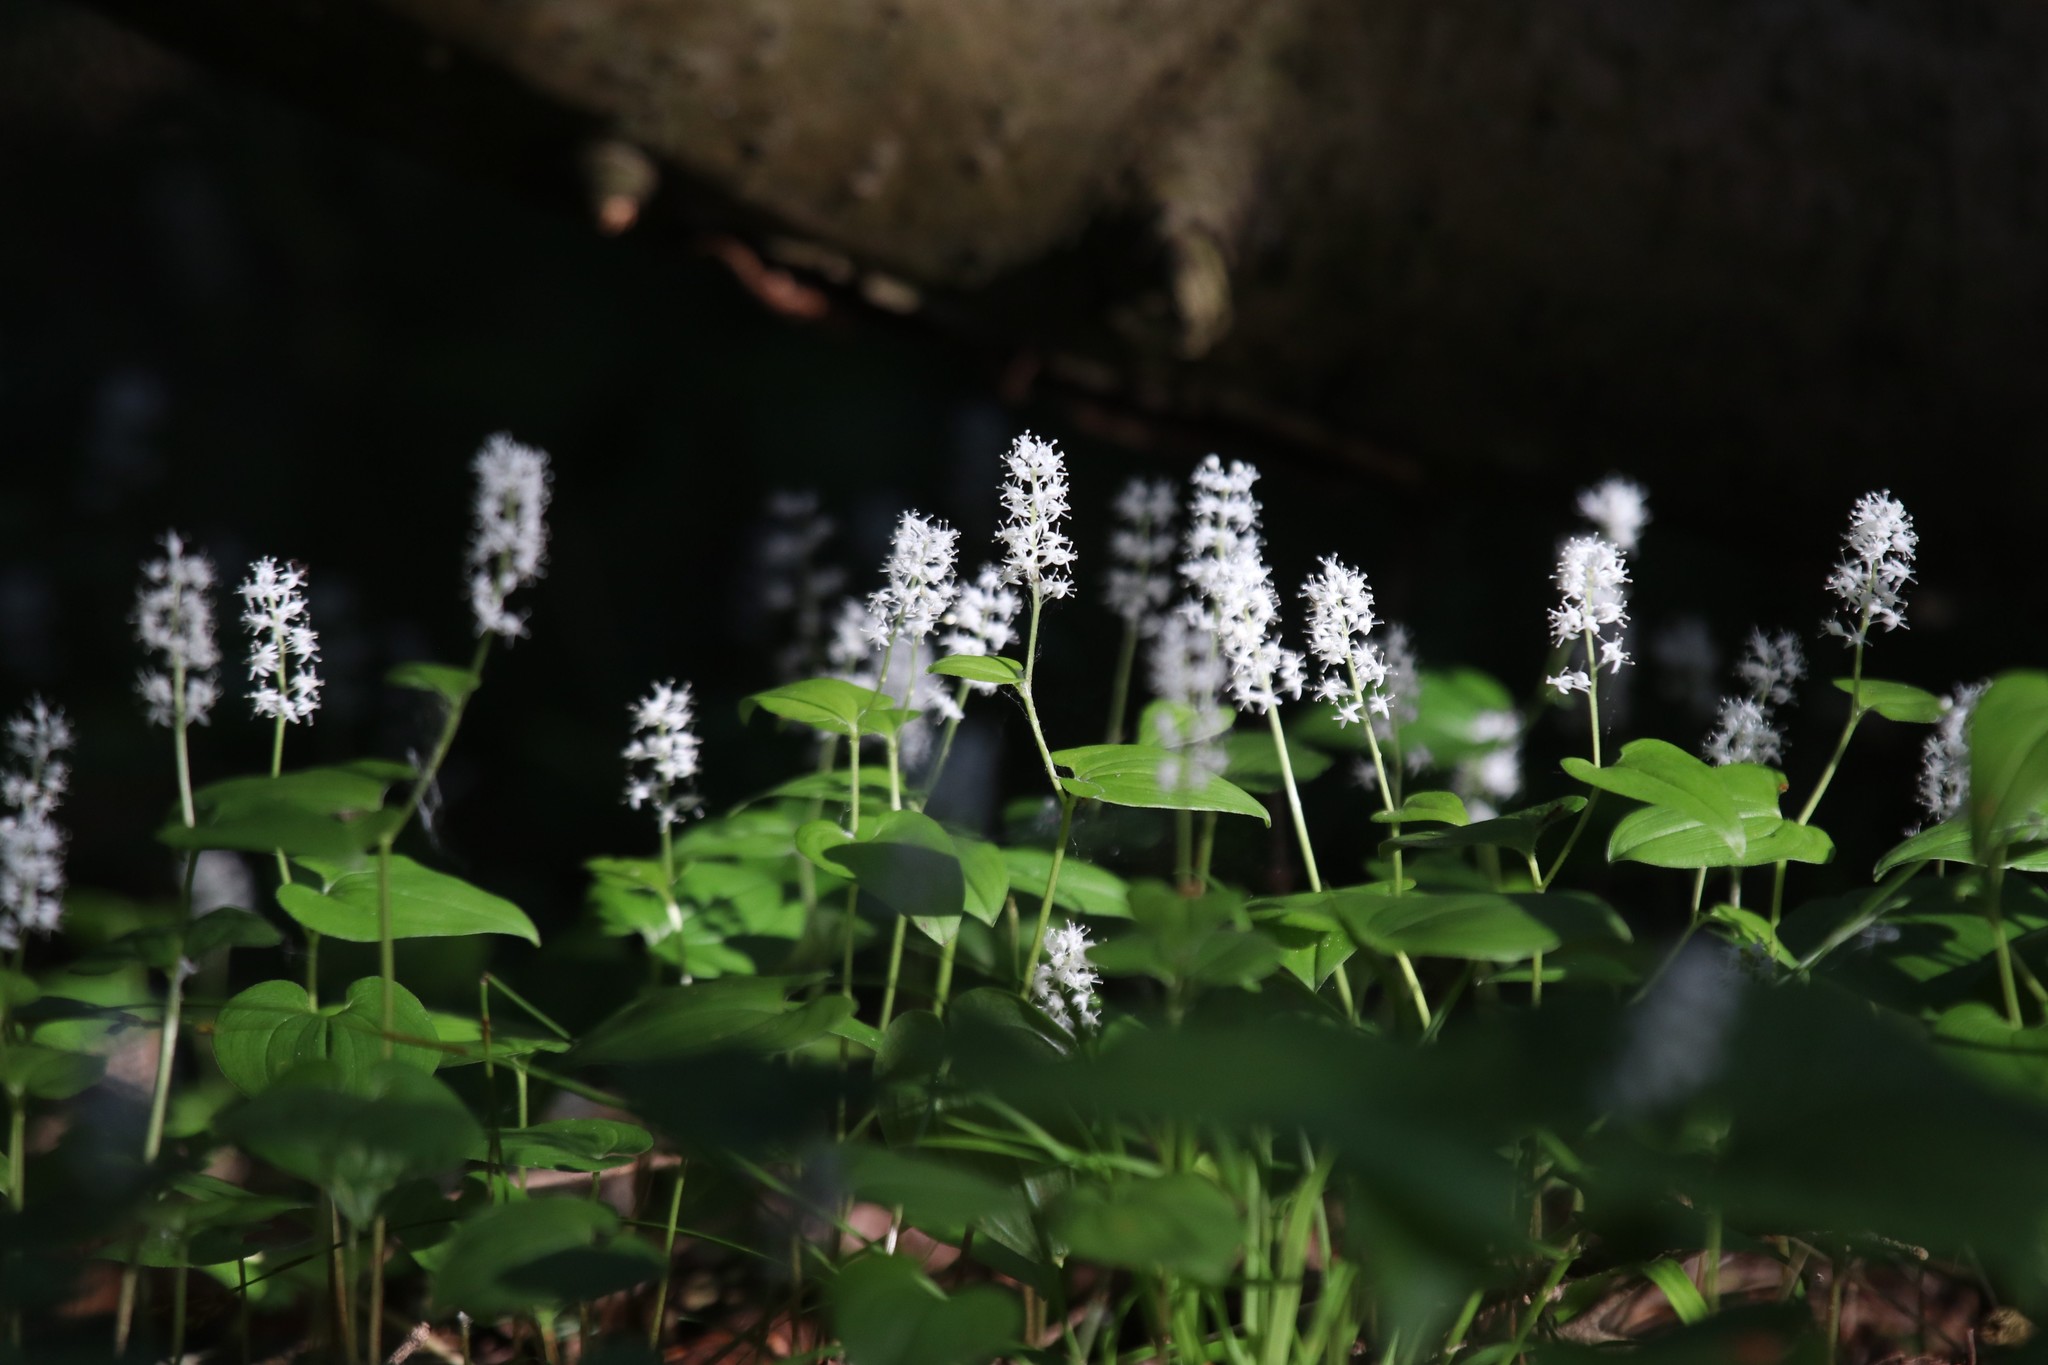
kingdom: Plantae
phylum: Tracheophyta
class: Liliopsida
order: Asparagales
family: Asparagaceae
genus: Maianthemum
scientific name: Maianthemum bifolium
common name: May lily
